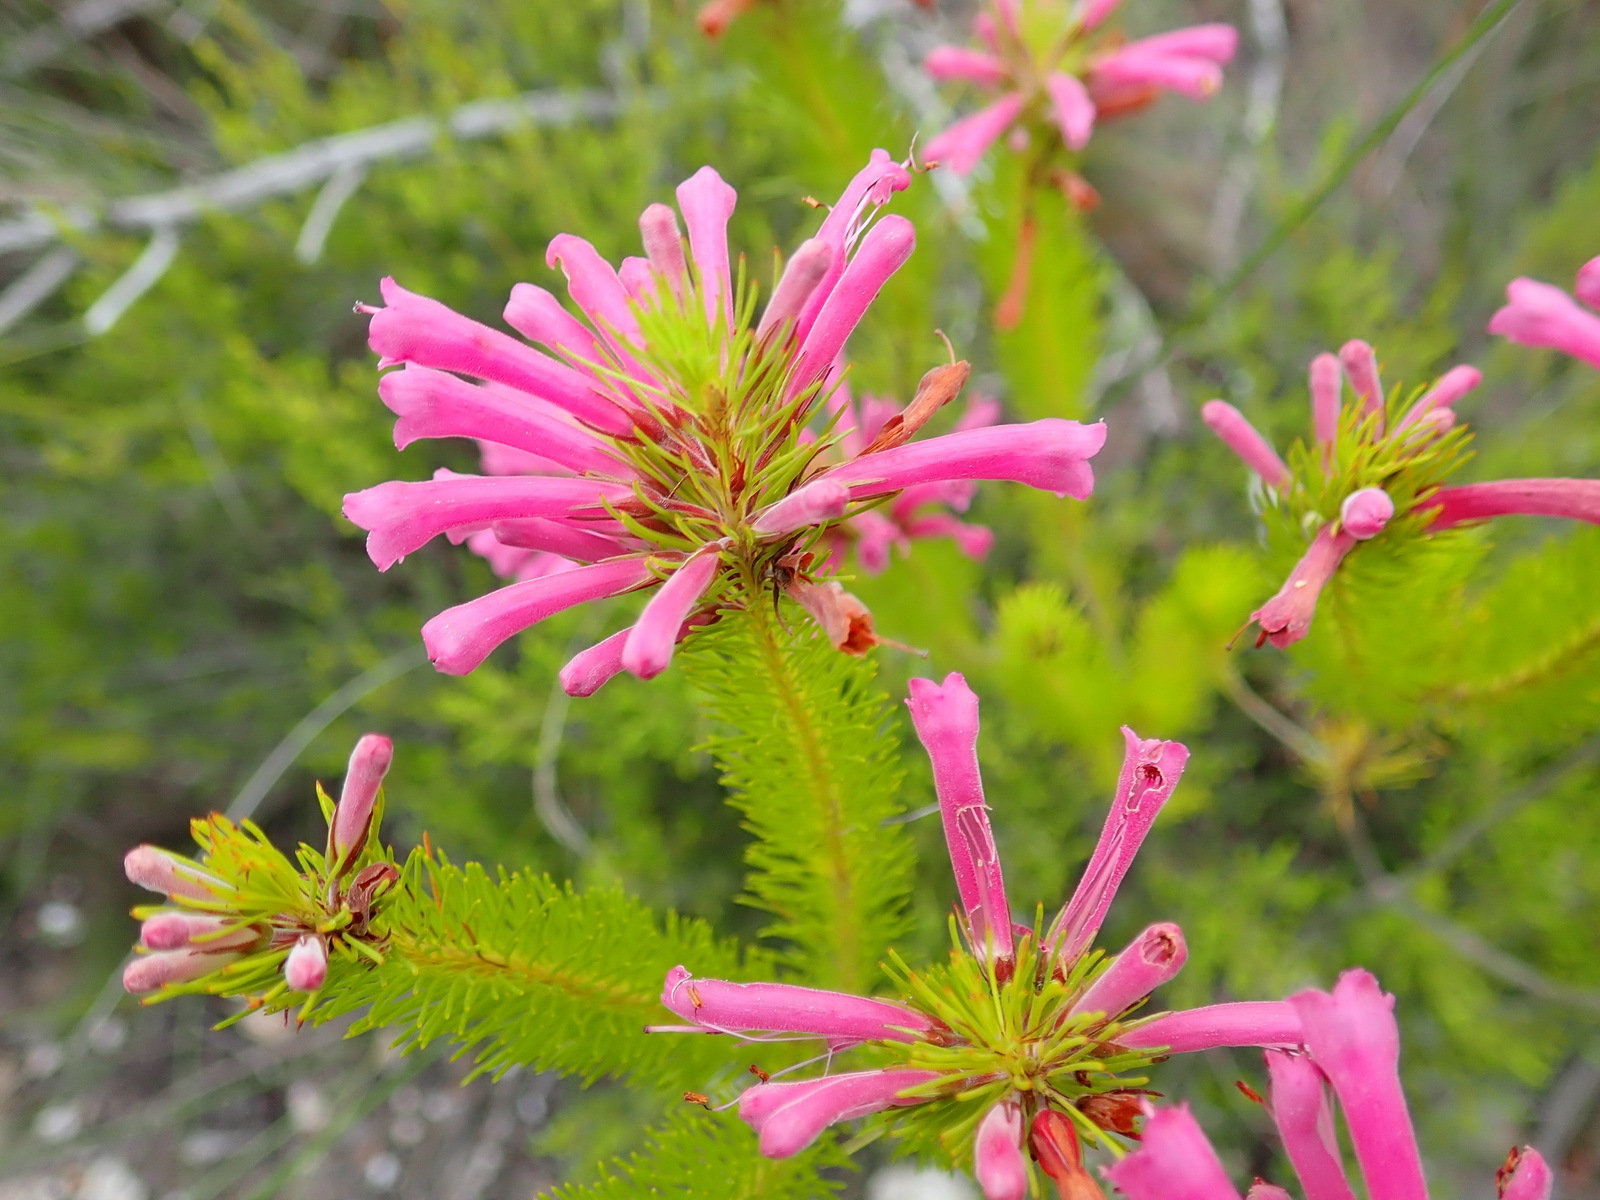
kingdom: Plantae
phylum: Tracheophyta
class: Magnoliopsida
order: Ericales
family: Ericaceae
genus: Erica
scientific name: Erica vestita
